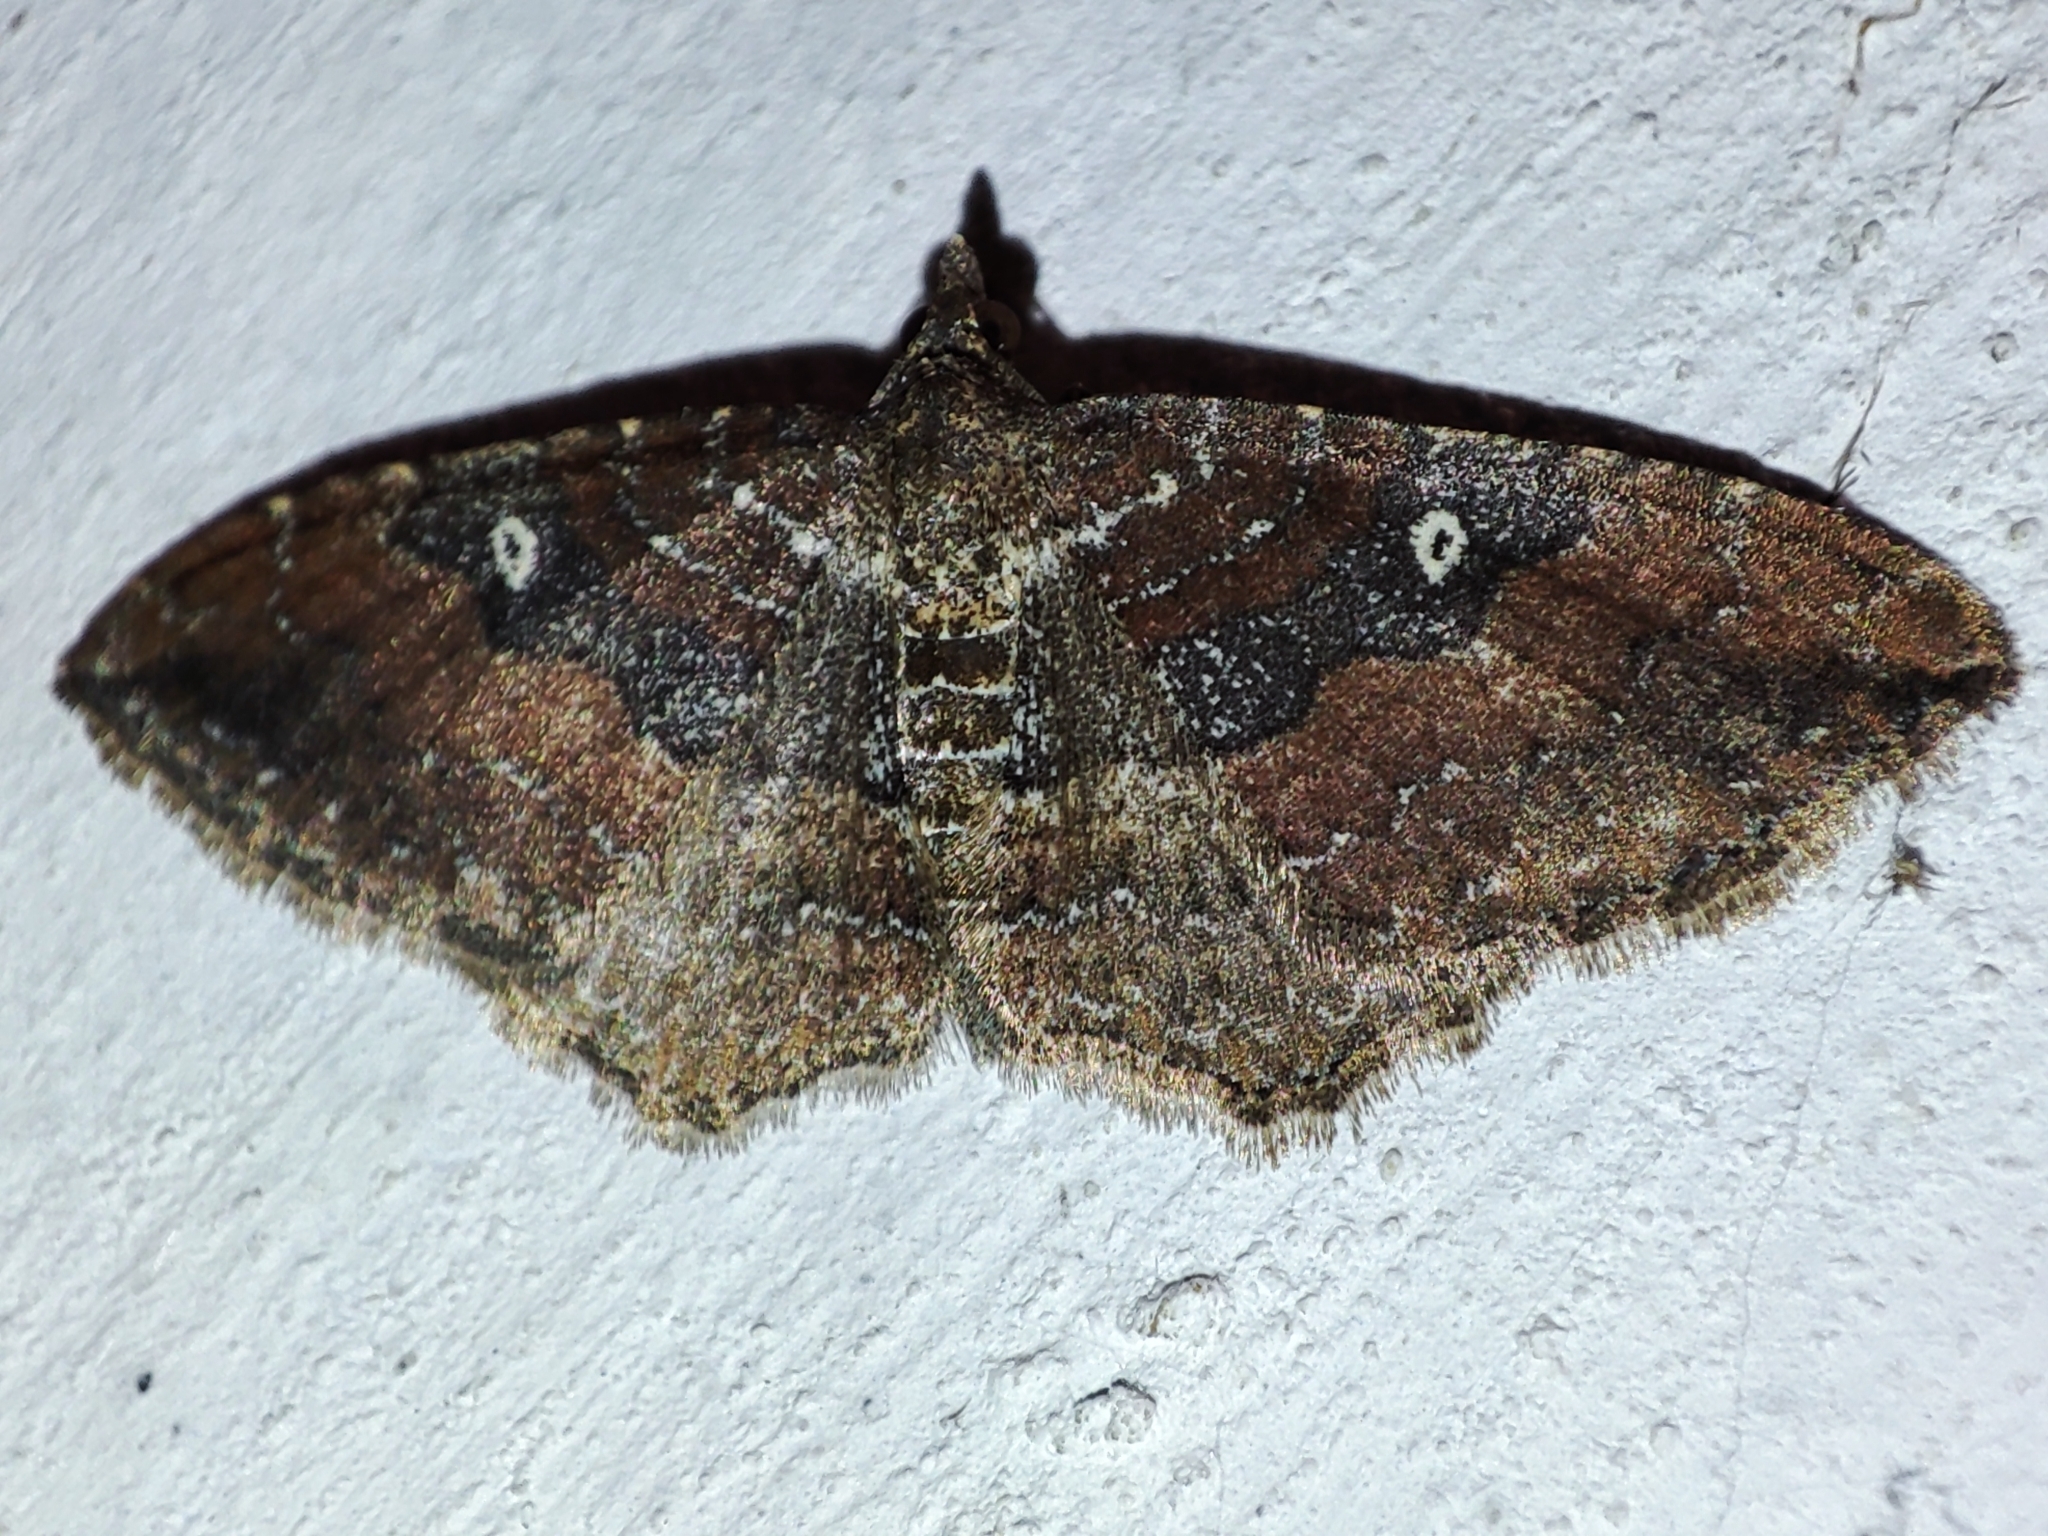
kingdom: Animalia
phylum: Arthropoda
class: Insecta
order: Lepidoptera
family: Geometridae
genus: Orthonama
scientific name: Orthonama obstipata
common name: The gem
